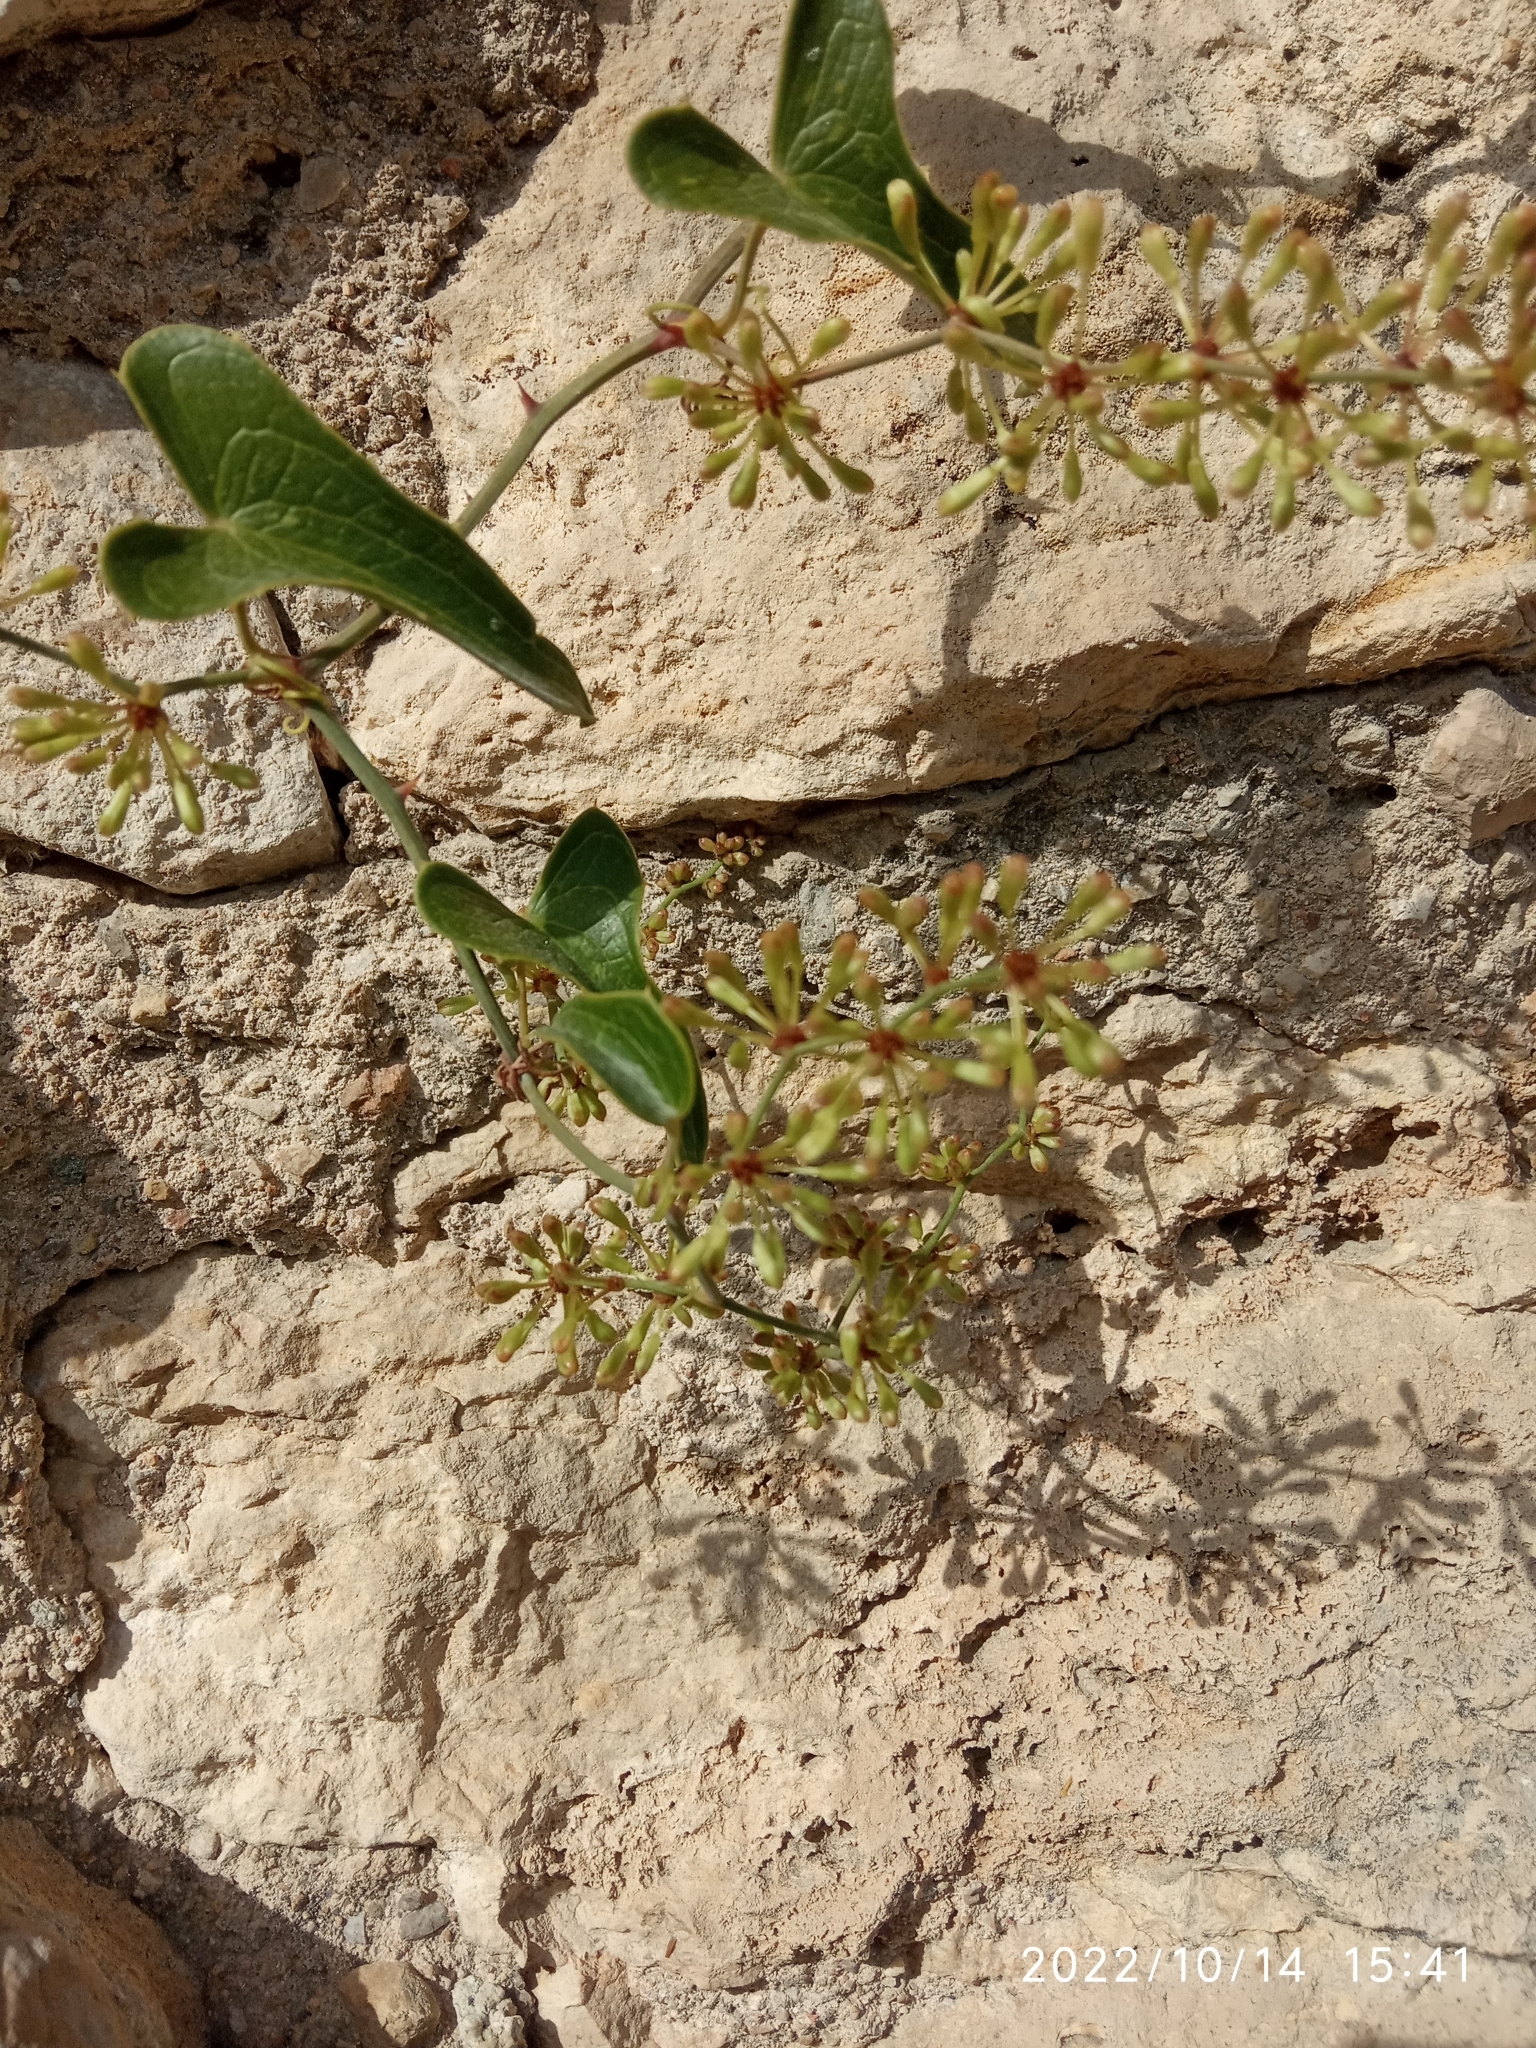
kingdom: Plantae
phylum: Tracheophyta
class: Liliopsida
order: Liliales
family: Smilacaceae
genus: Smilax
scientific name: Smilax aspera
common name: Common smilax
